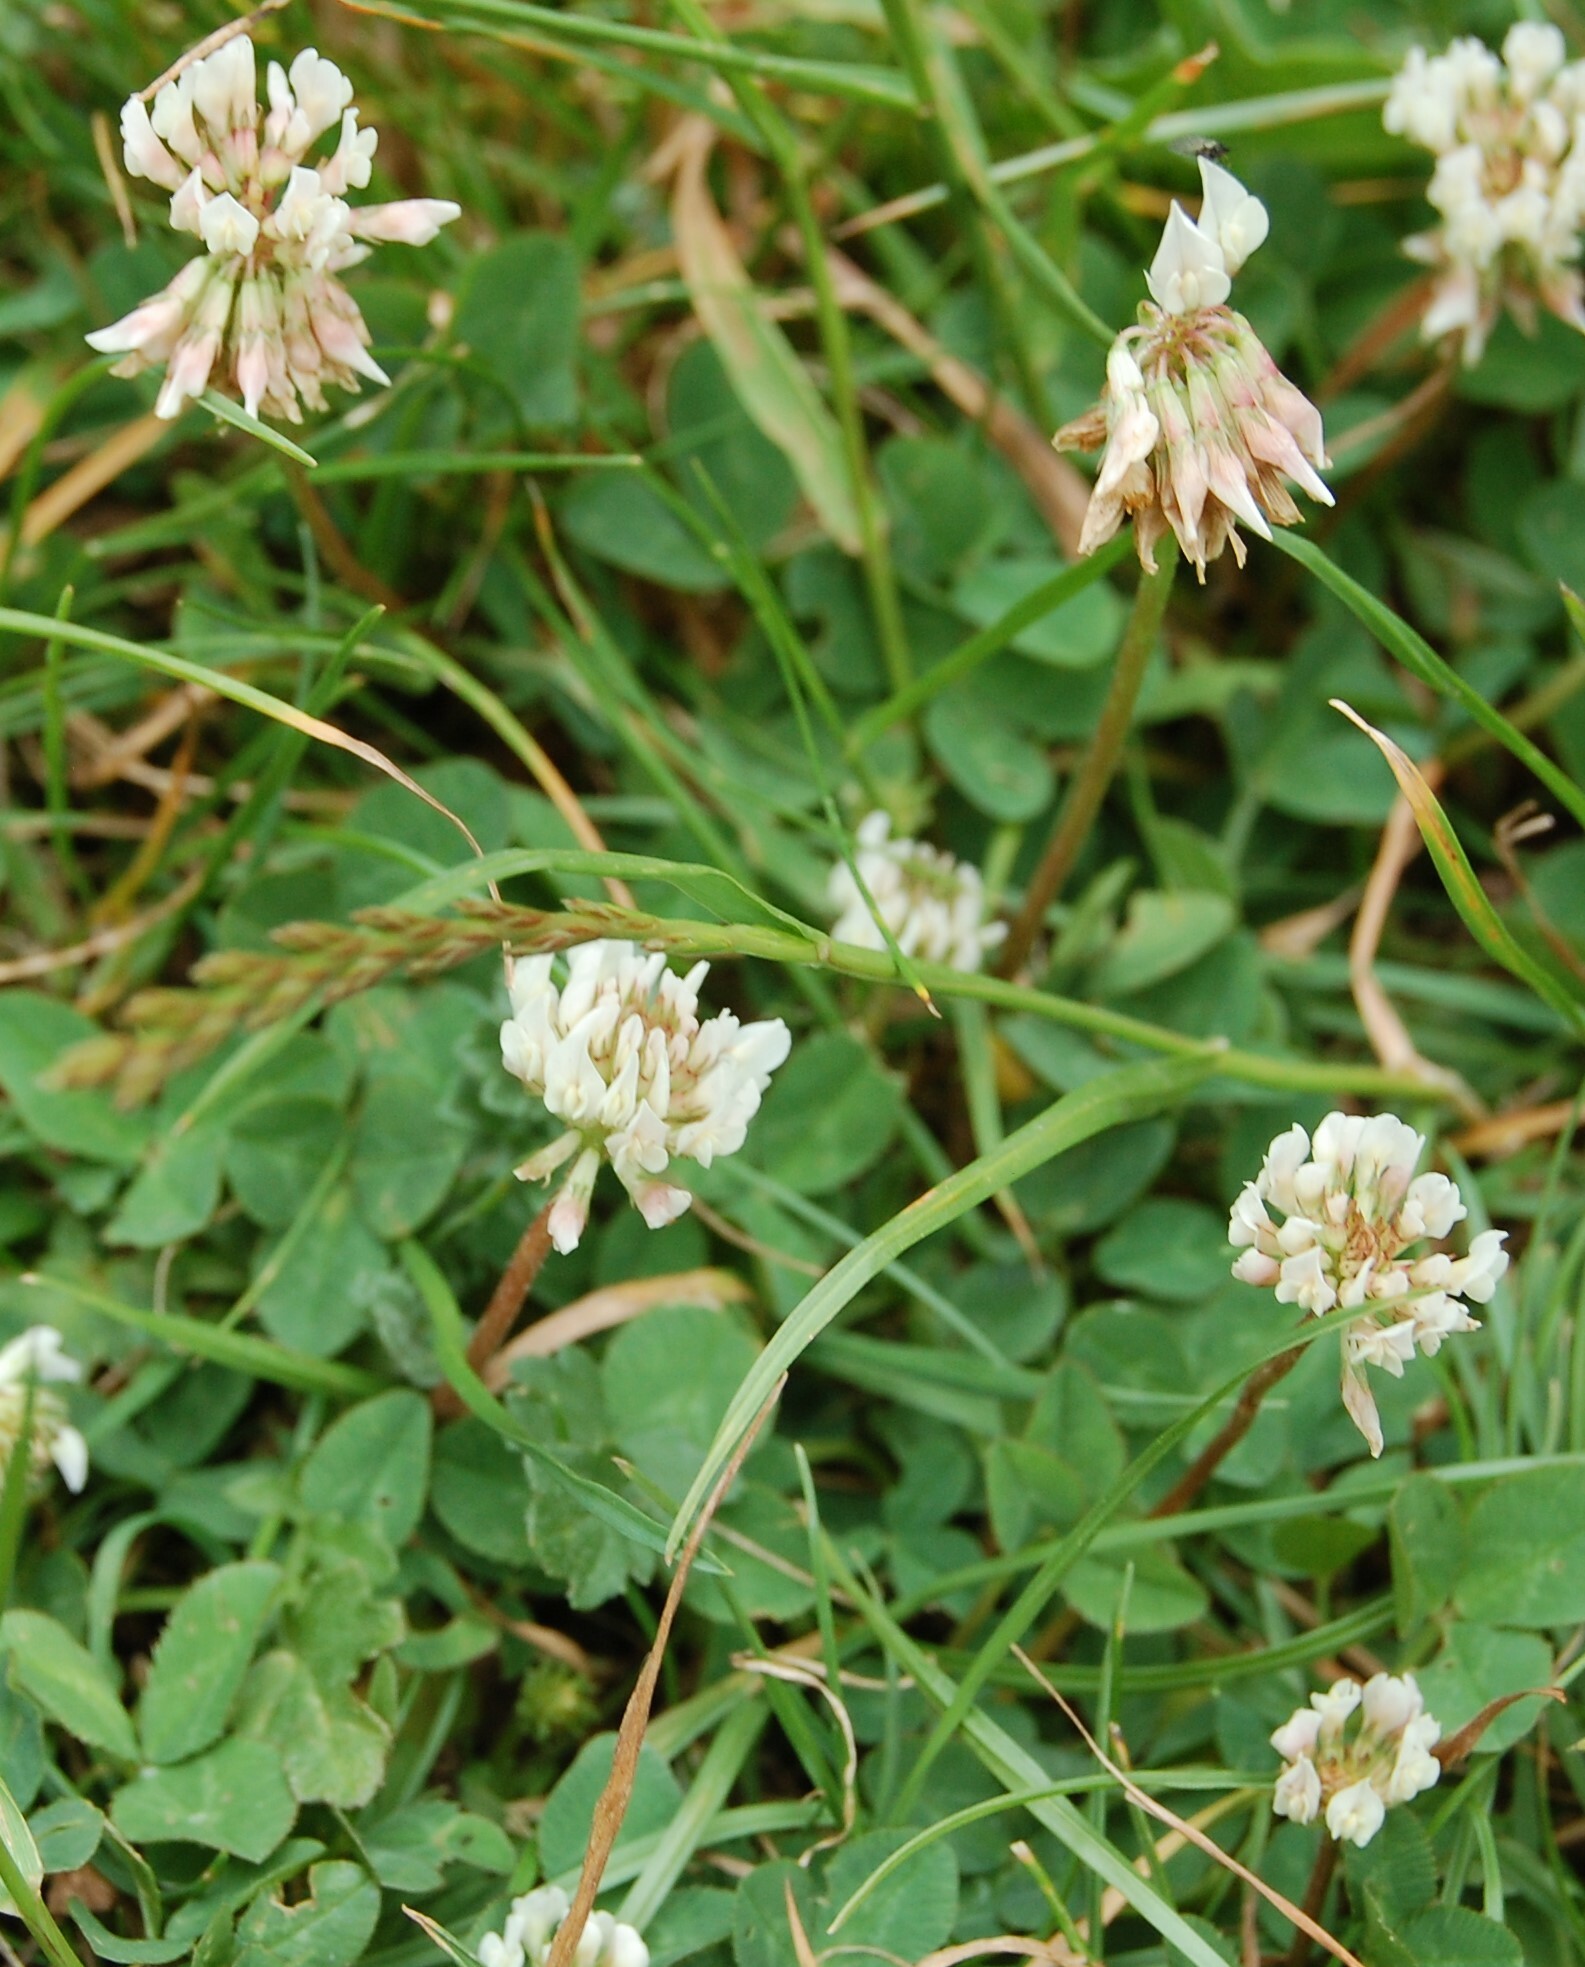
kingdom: Plantae
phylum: Tracheophyta
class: Magnoliopsida
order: Fabales
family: Fabaceae
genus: Trifolium
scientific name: Trifolium repens
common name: White clover
